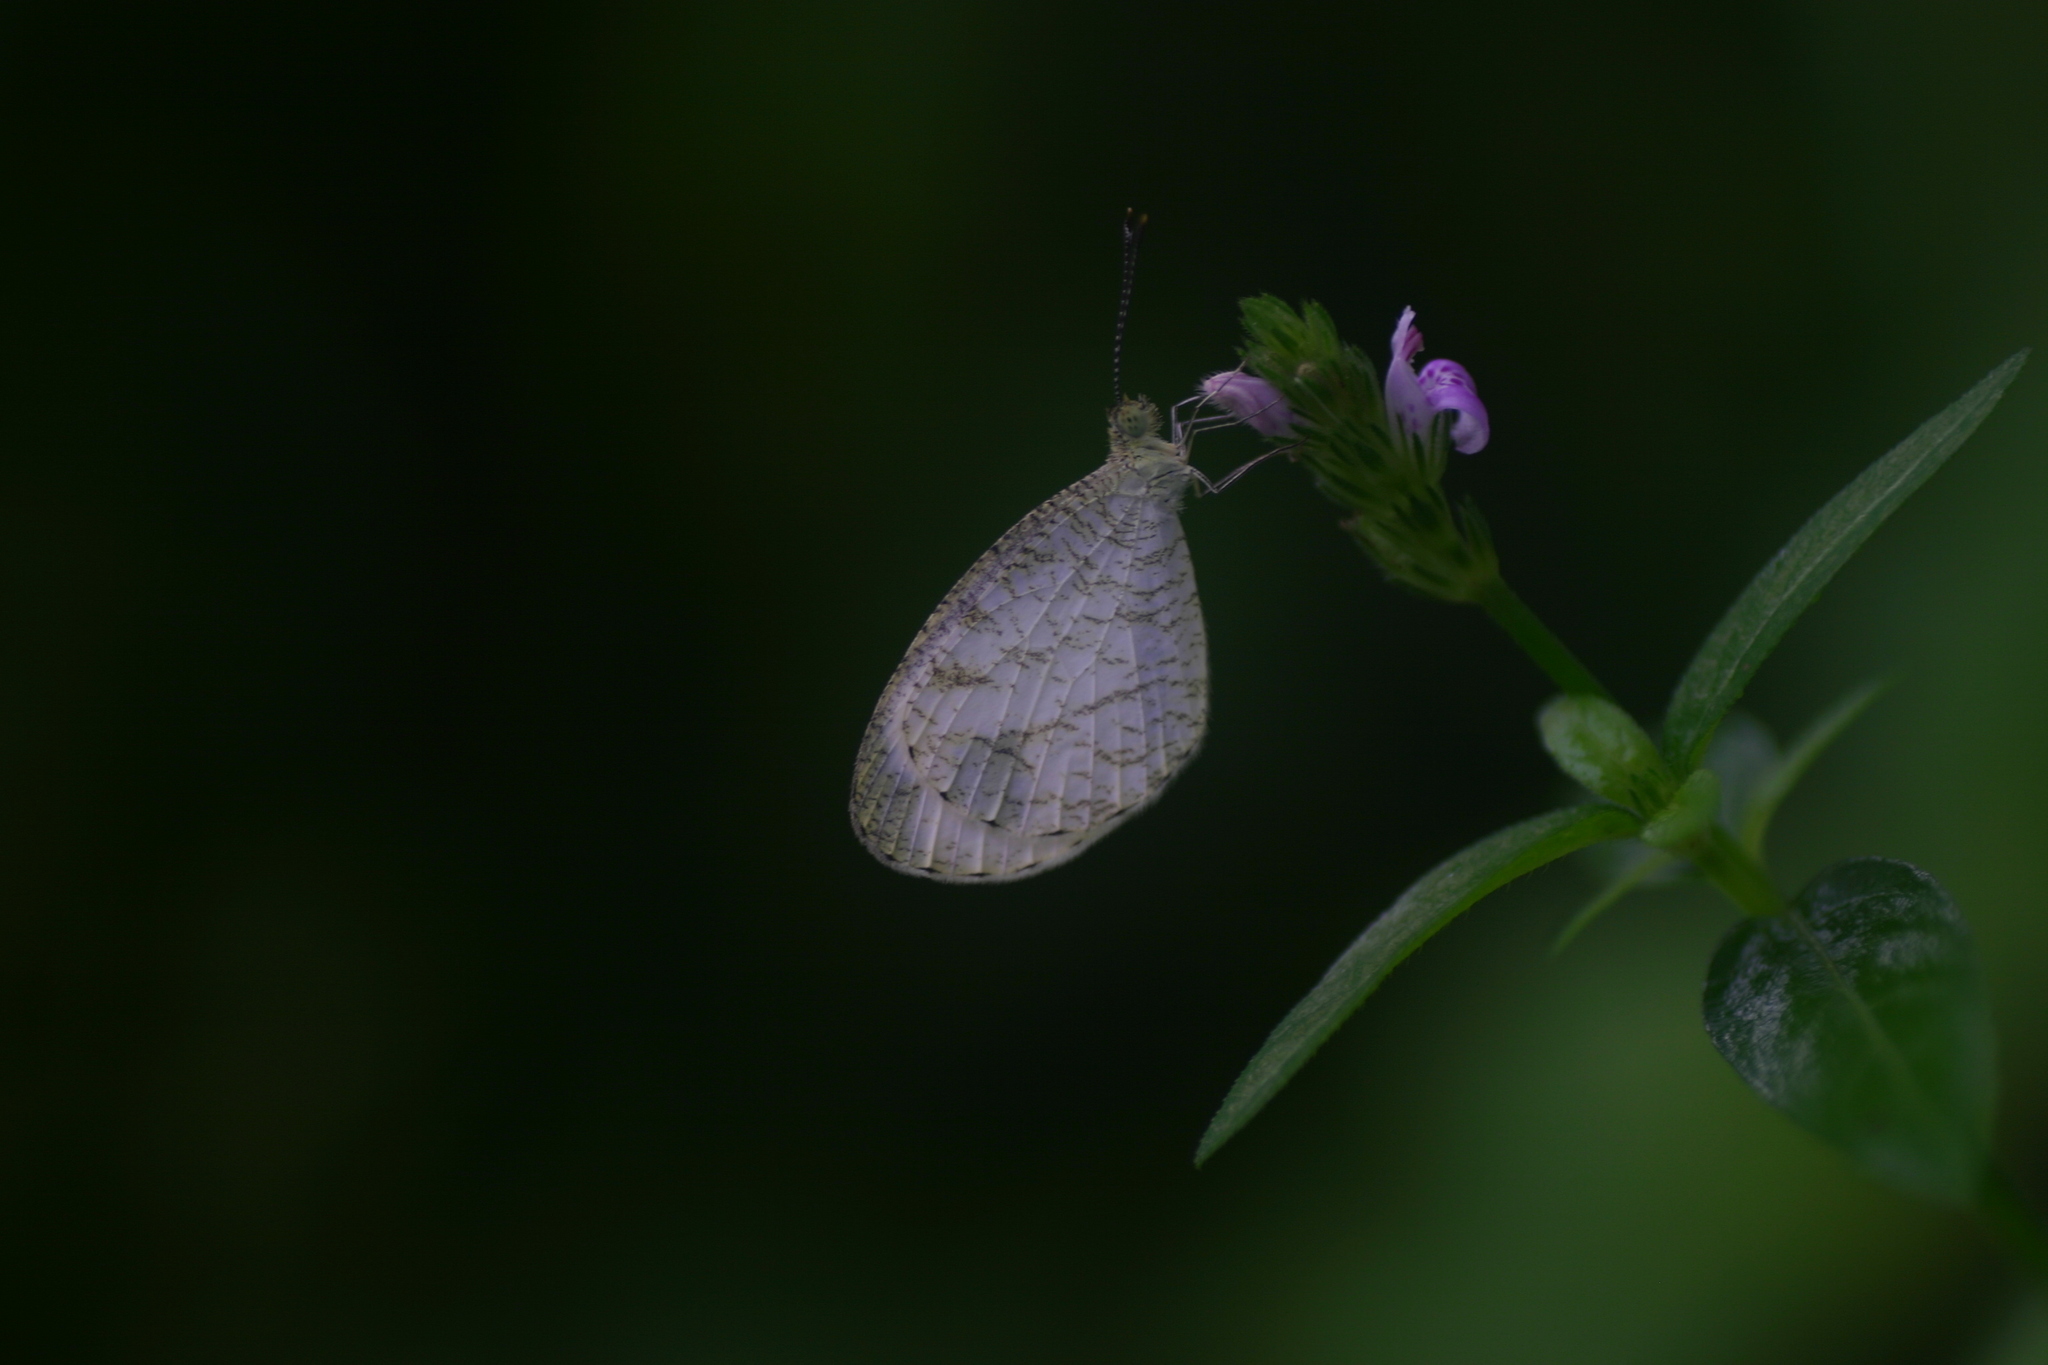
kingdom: Animalia
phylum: Arthropoda
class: Insecta
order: Lepidoptera
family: Pieridae
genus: Leptosia
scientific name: Leptosia nina
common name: Psyche
